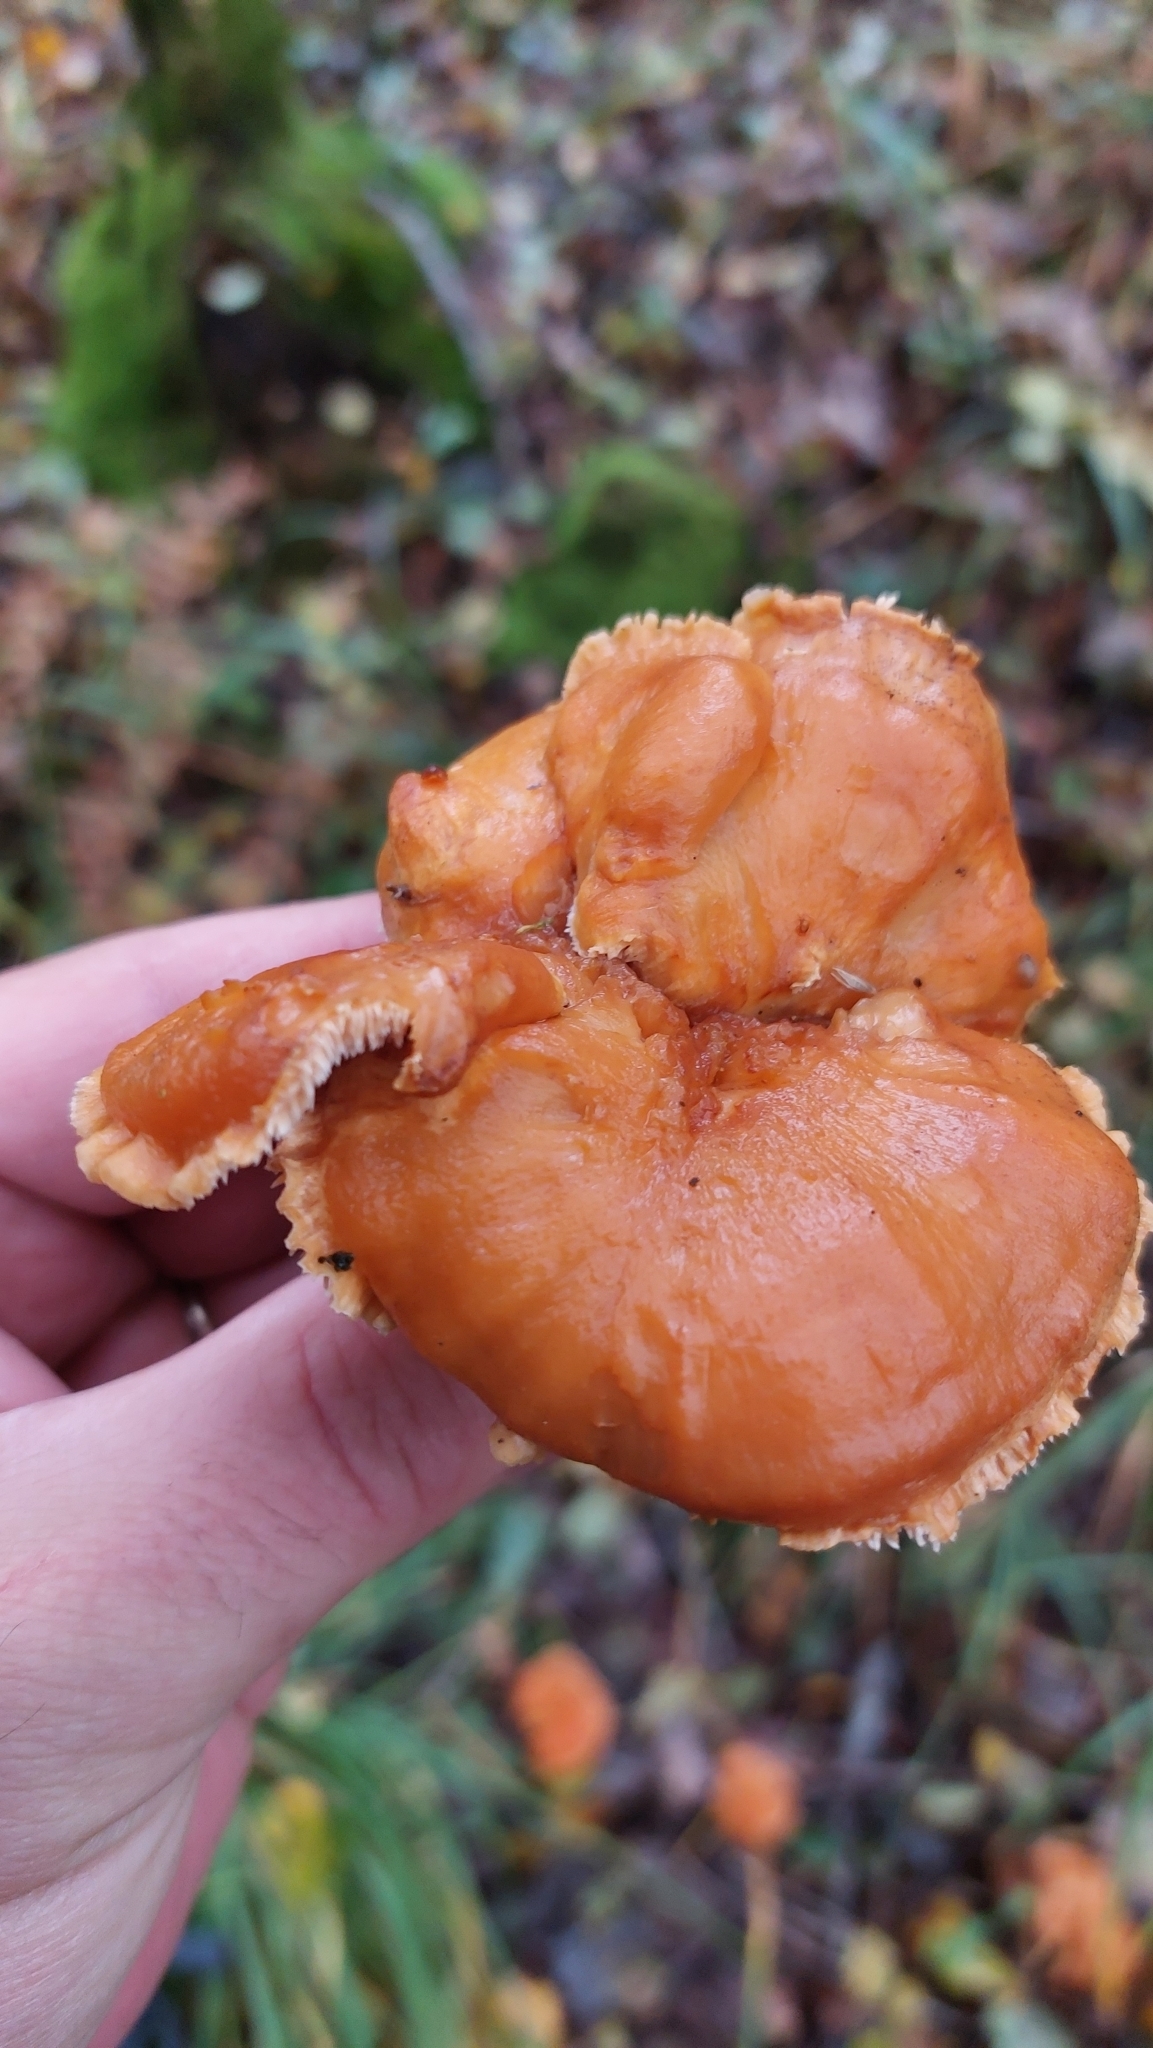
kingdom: Fungi
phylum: Basidiomycota
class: Agaricomycetes
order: Cantharellales
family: Hydnaceae
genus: Hydnum
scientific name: Hydnum rufescens
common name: Terracotta hedgehog
